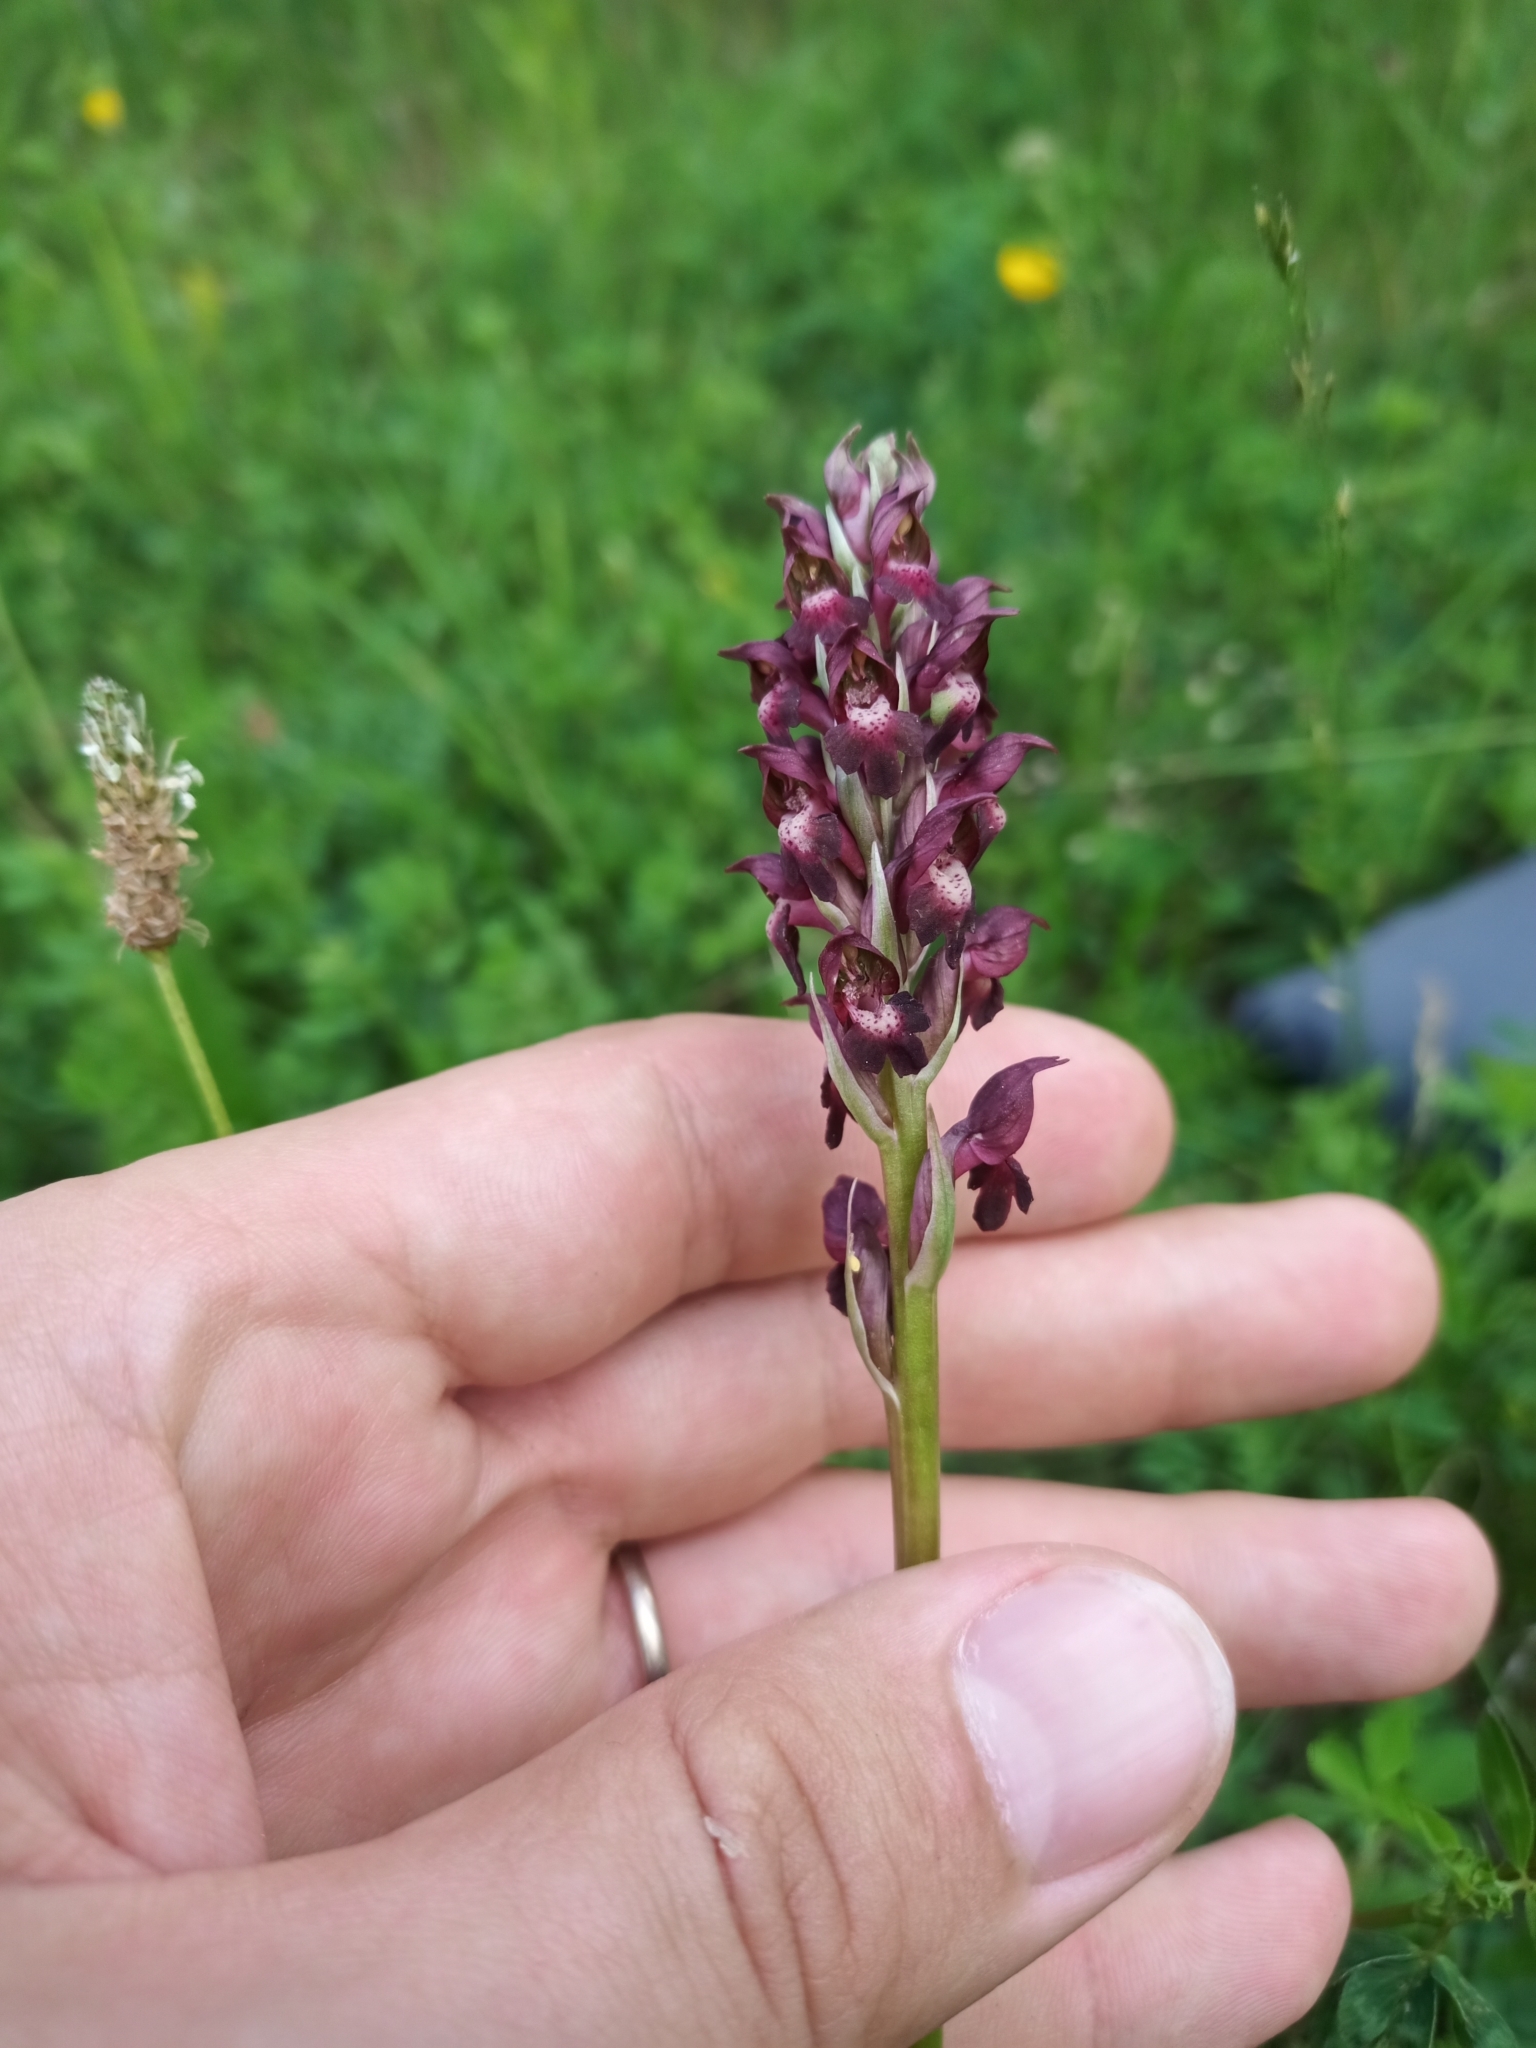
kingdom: Plantae
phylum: Tracheophyta
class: Liliopsida
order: Asparagales
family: Orchidaceae
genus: Anacamptis
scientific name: Anacamptis coriophora
